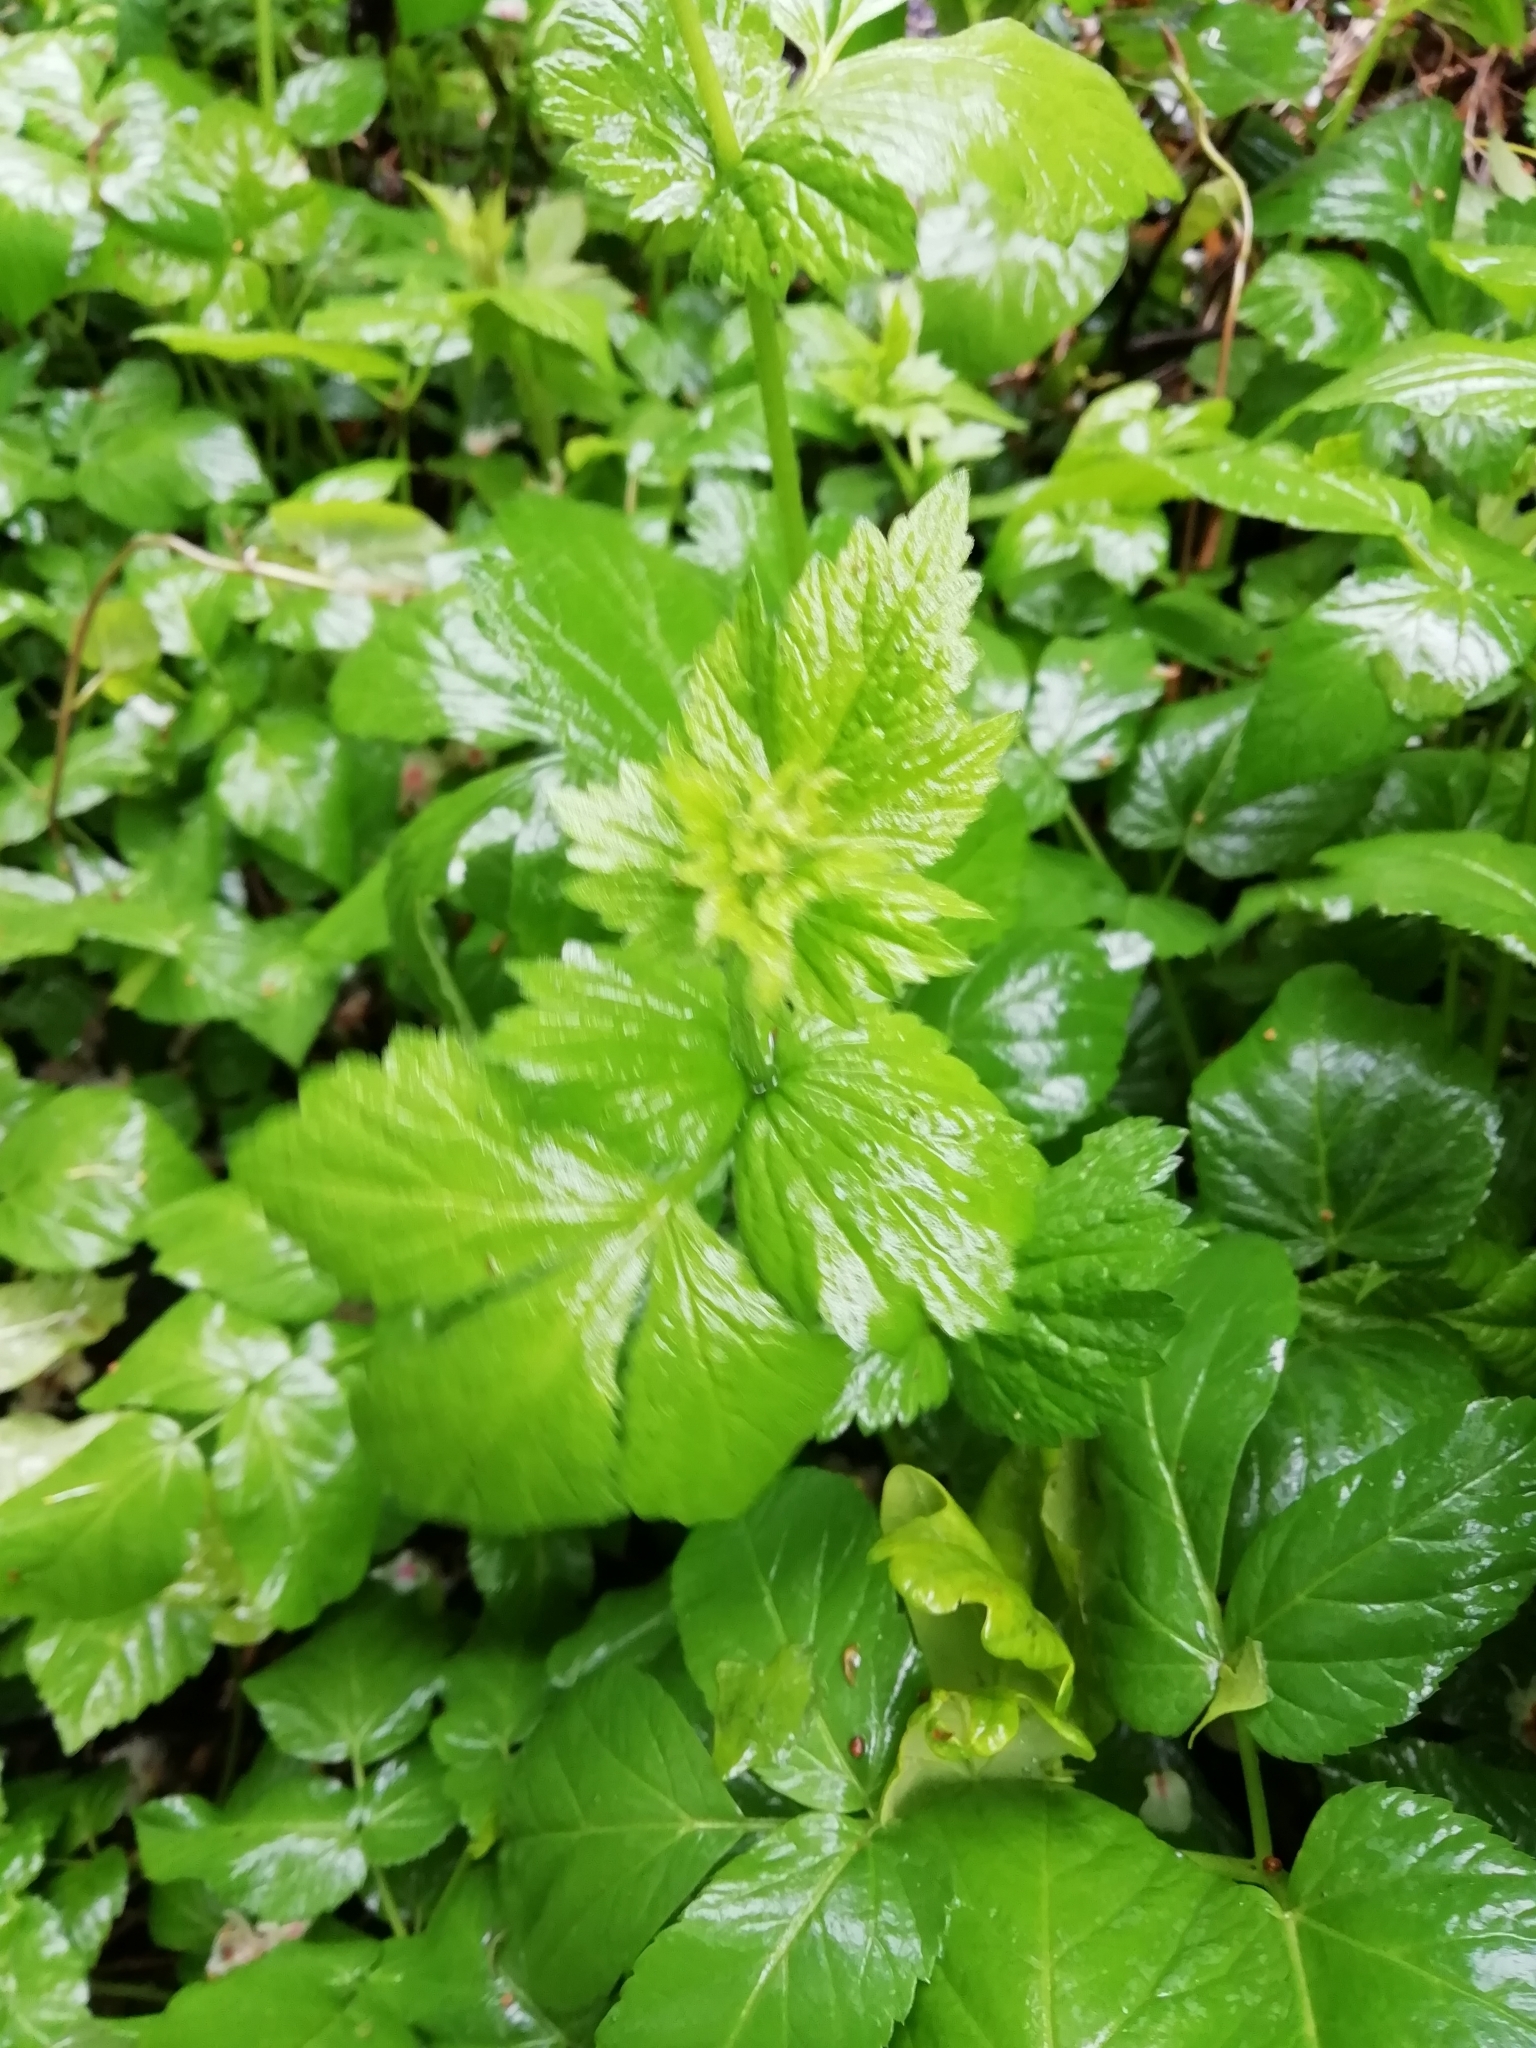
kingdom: Plantae
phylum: Tracheophyta
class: Magnoliopsida
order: Rosales
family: Rosaceae
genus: Geum
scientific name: Geum urbanum
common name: Wood avens
